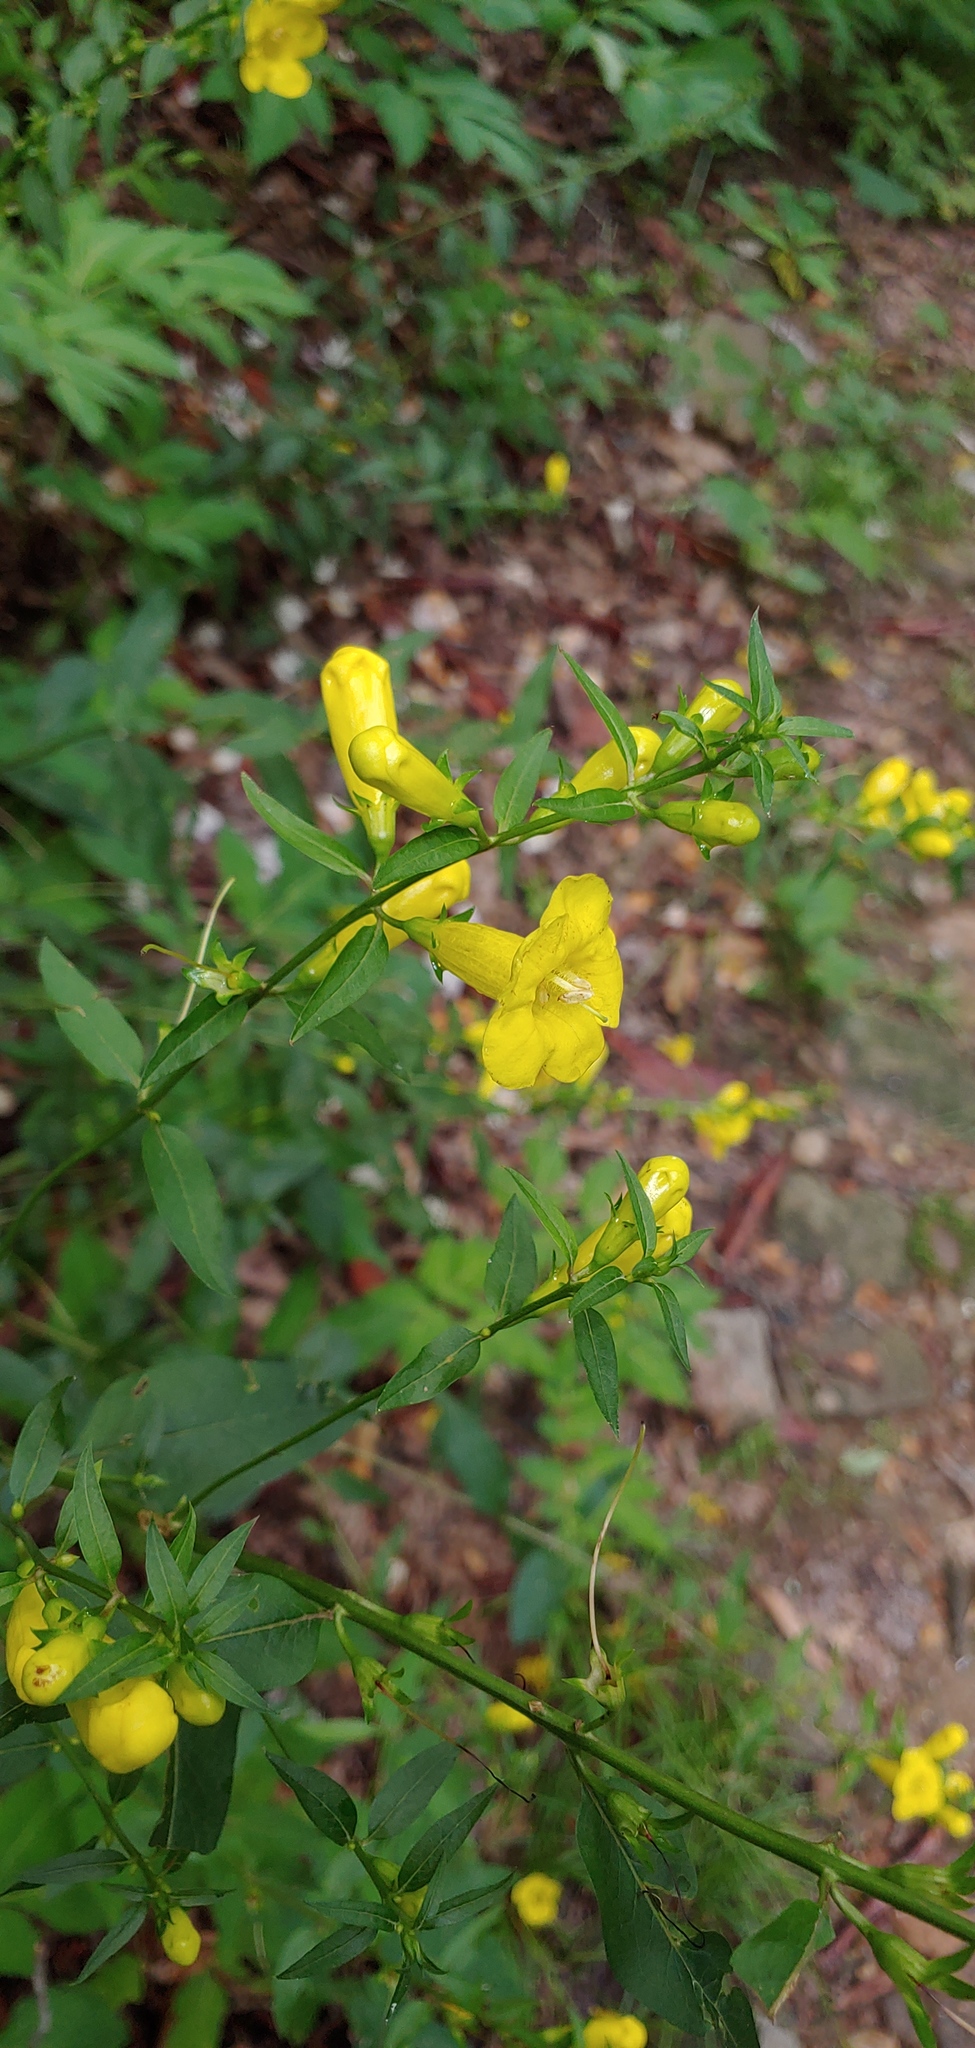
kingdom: Plantae
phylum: Tracheophyta
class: Magnoliopsida
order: Lamiales
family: Orobanchaceae
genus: Aureolaria
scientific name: Aureolaria levigata
